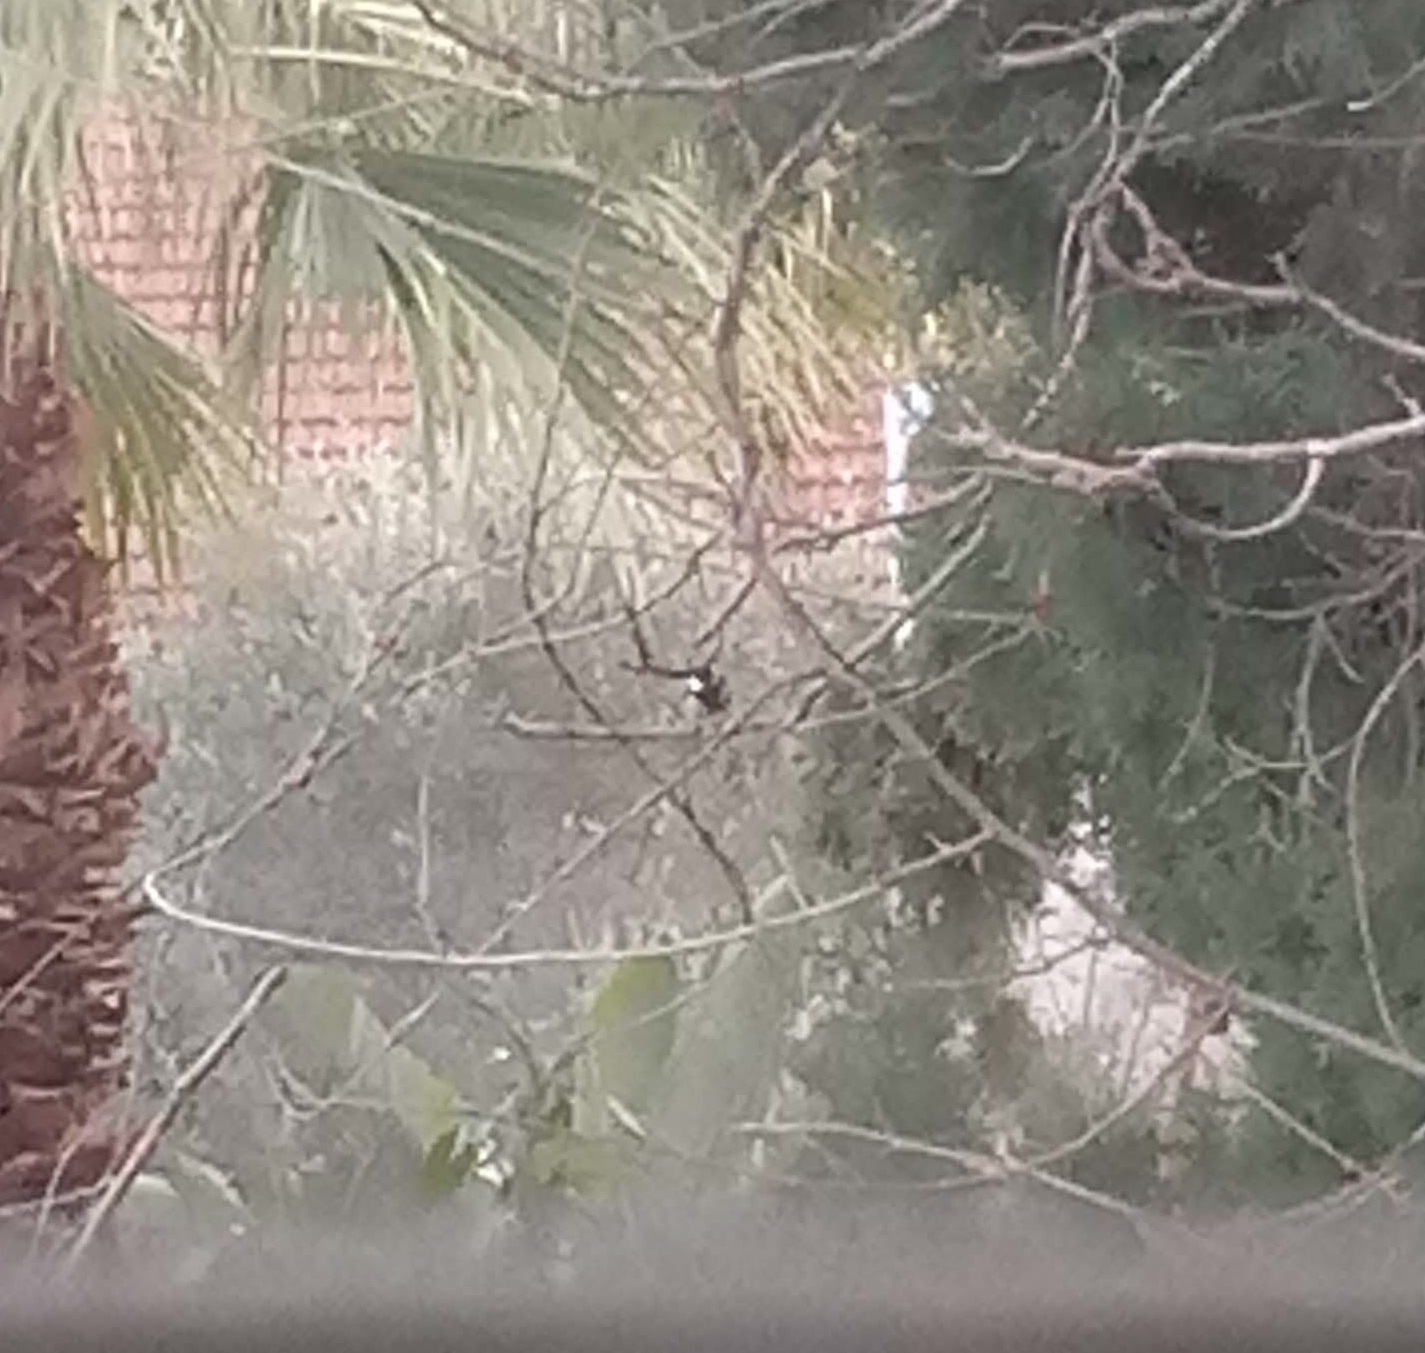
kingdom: Animalia
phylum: Chordata
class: Aves
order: Passeriformes
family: Paridae
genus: Parus
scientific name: Parus major
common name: Great tit
